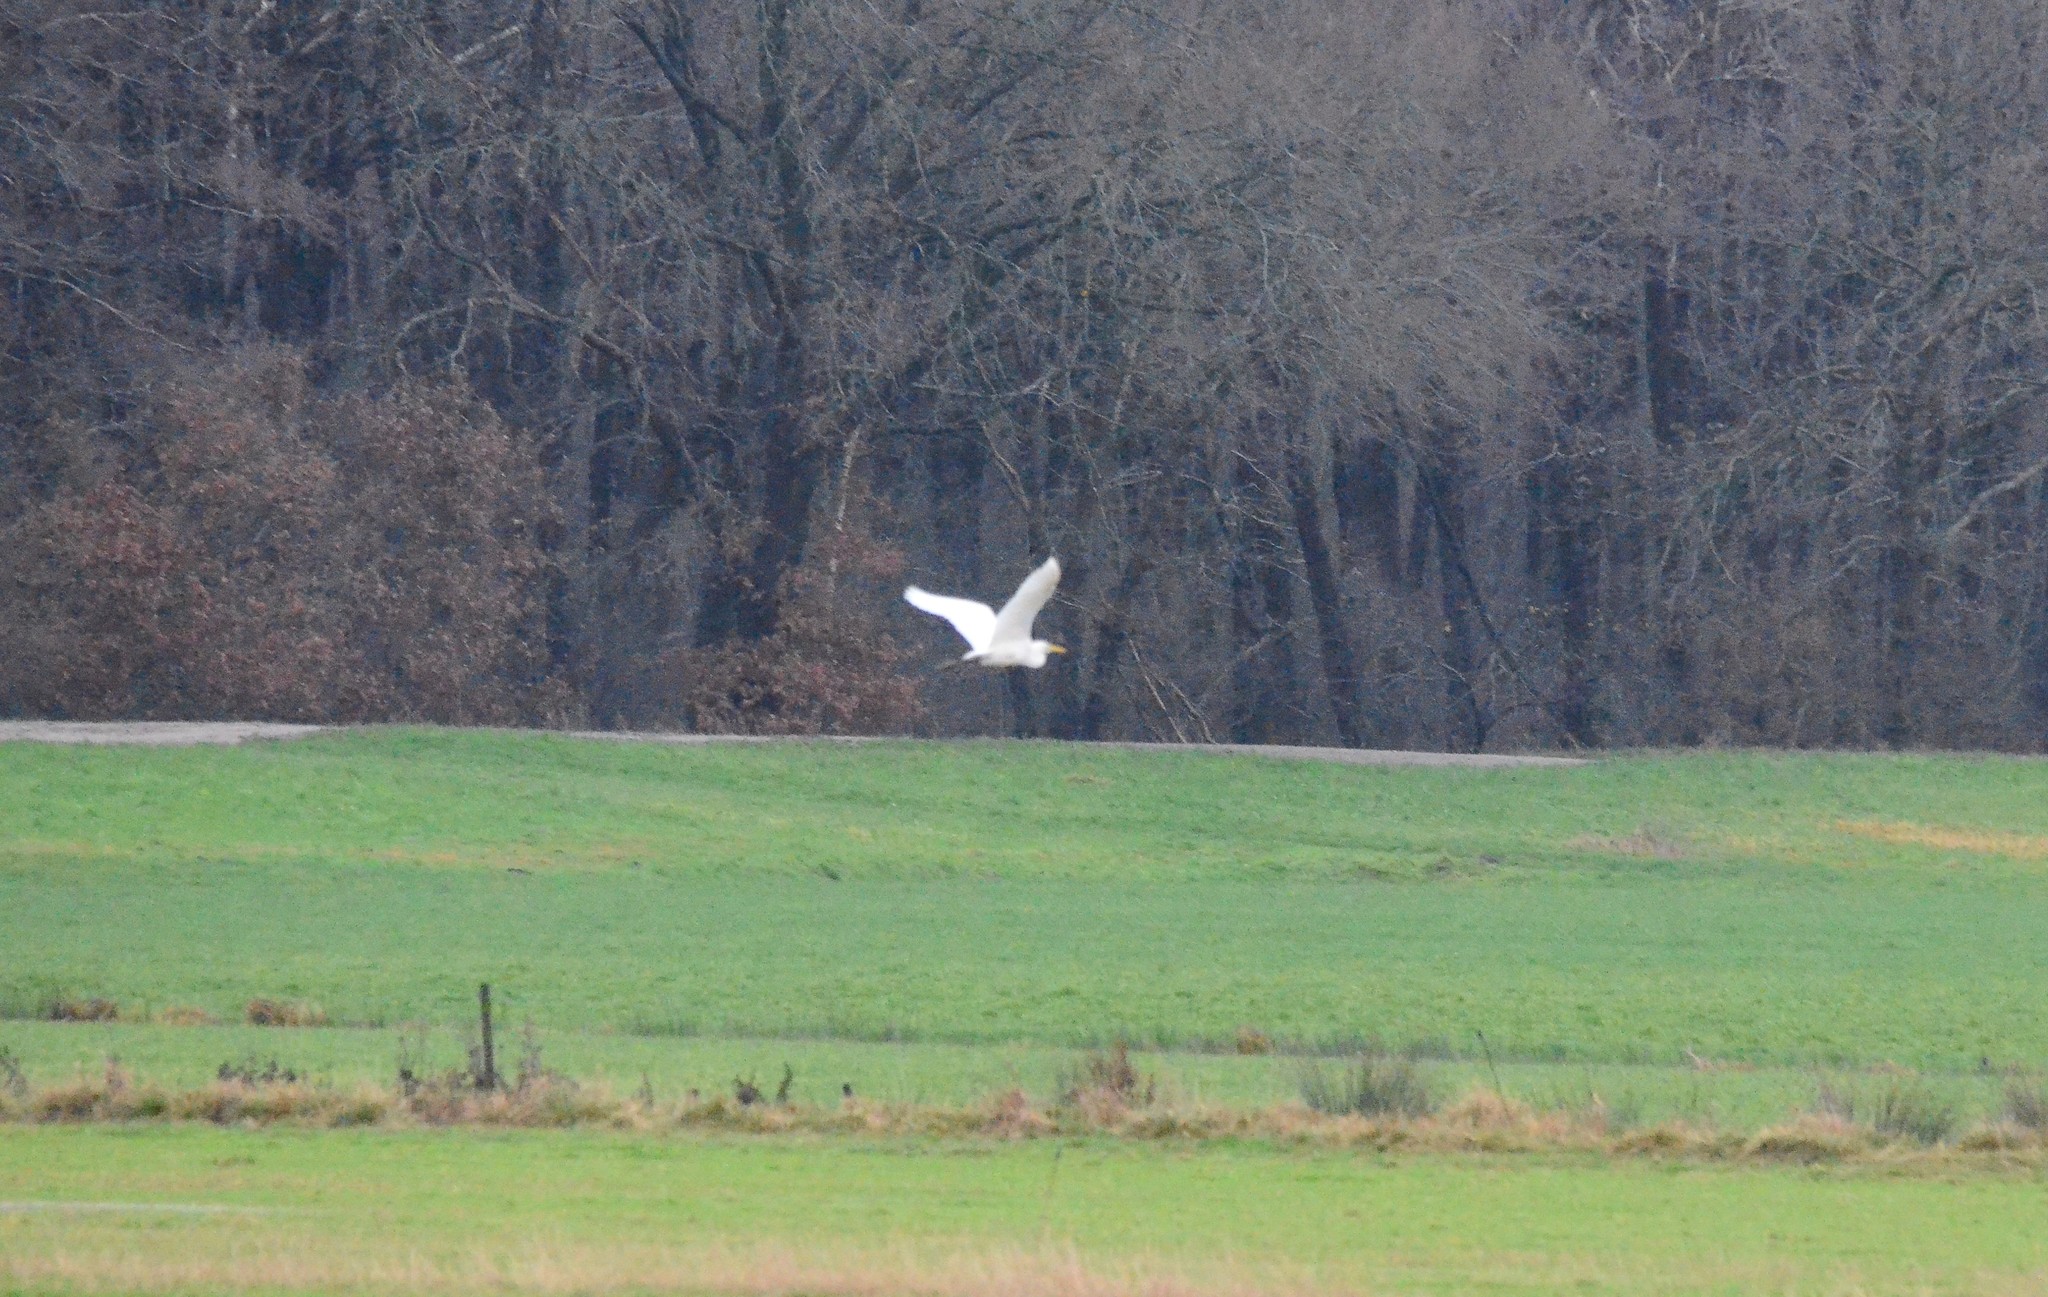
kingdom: Animalia
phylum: Chordata
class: Aves
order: Pelecaniformes
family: Ardeidae
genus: Ardea
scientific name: Ardea alba
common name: Great egret
